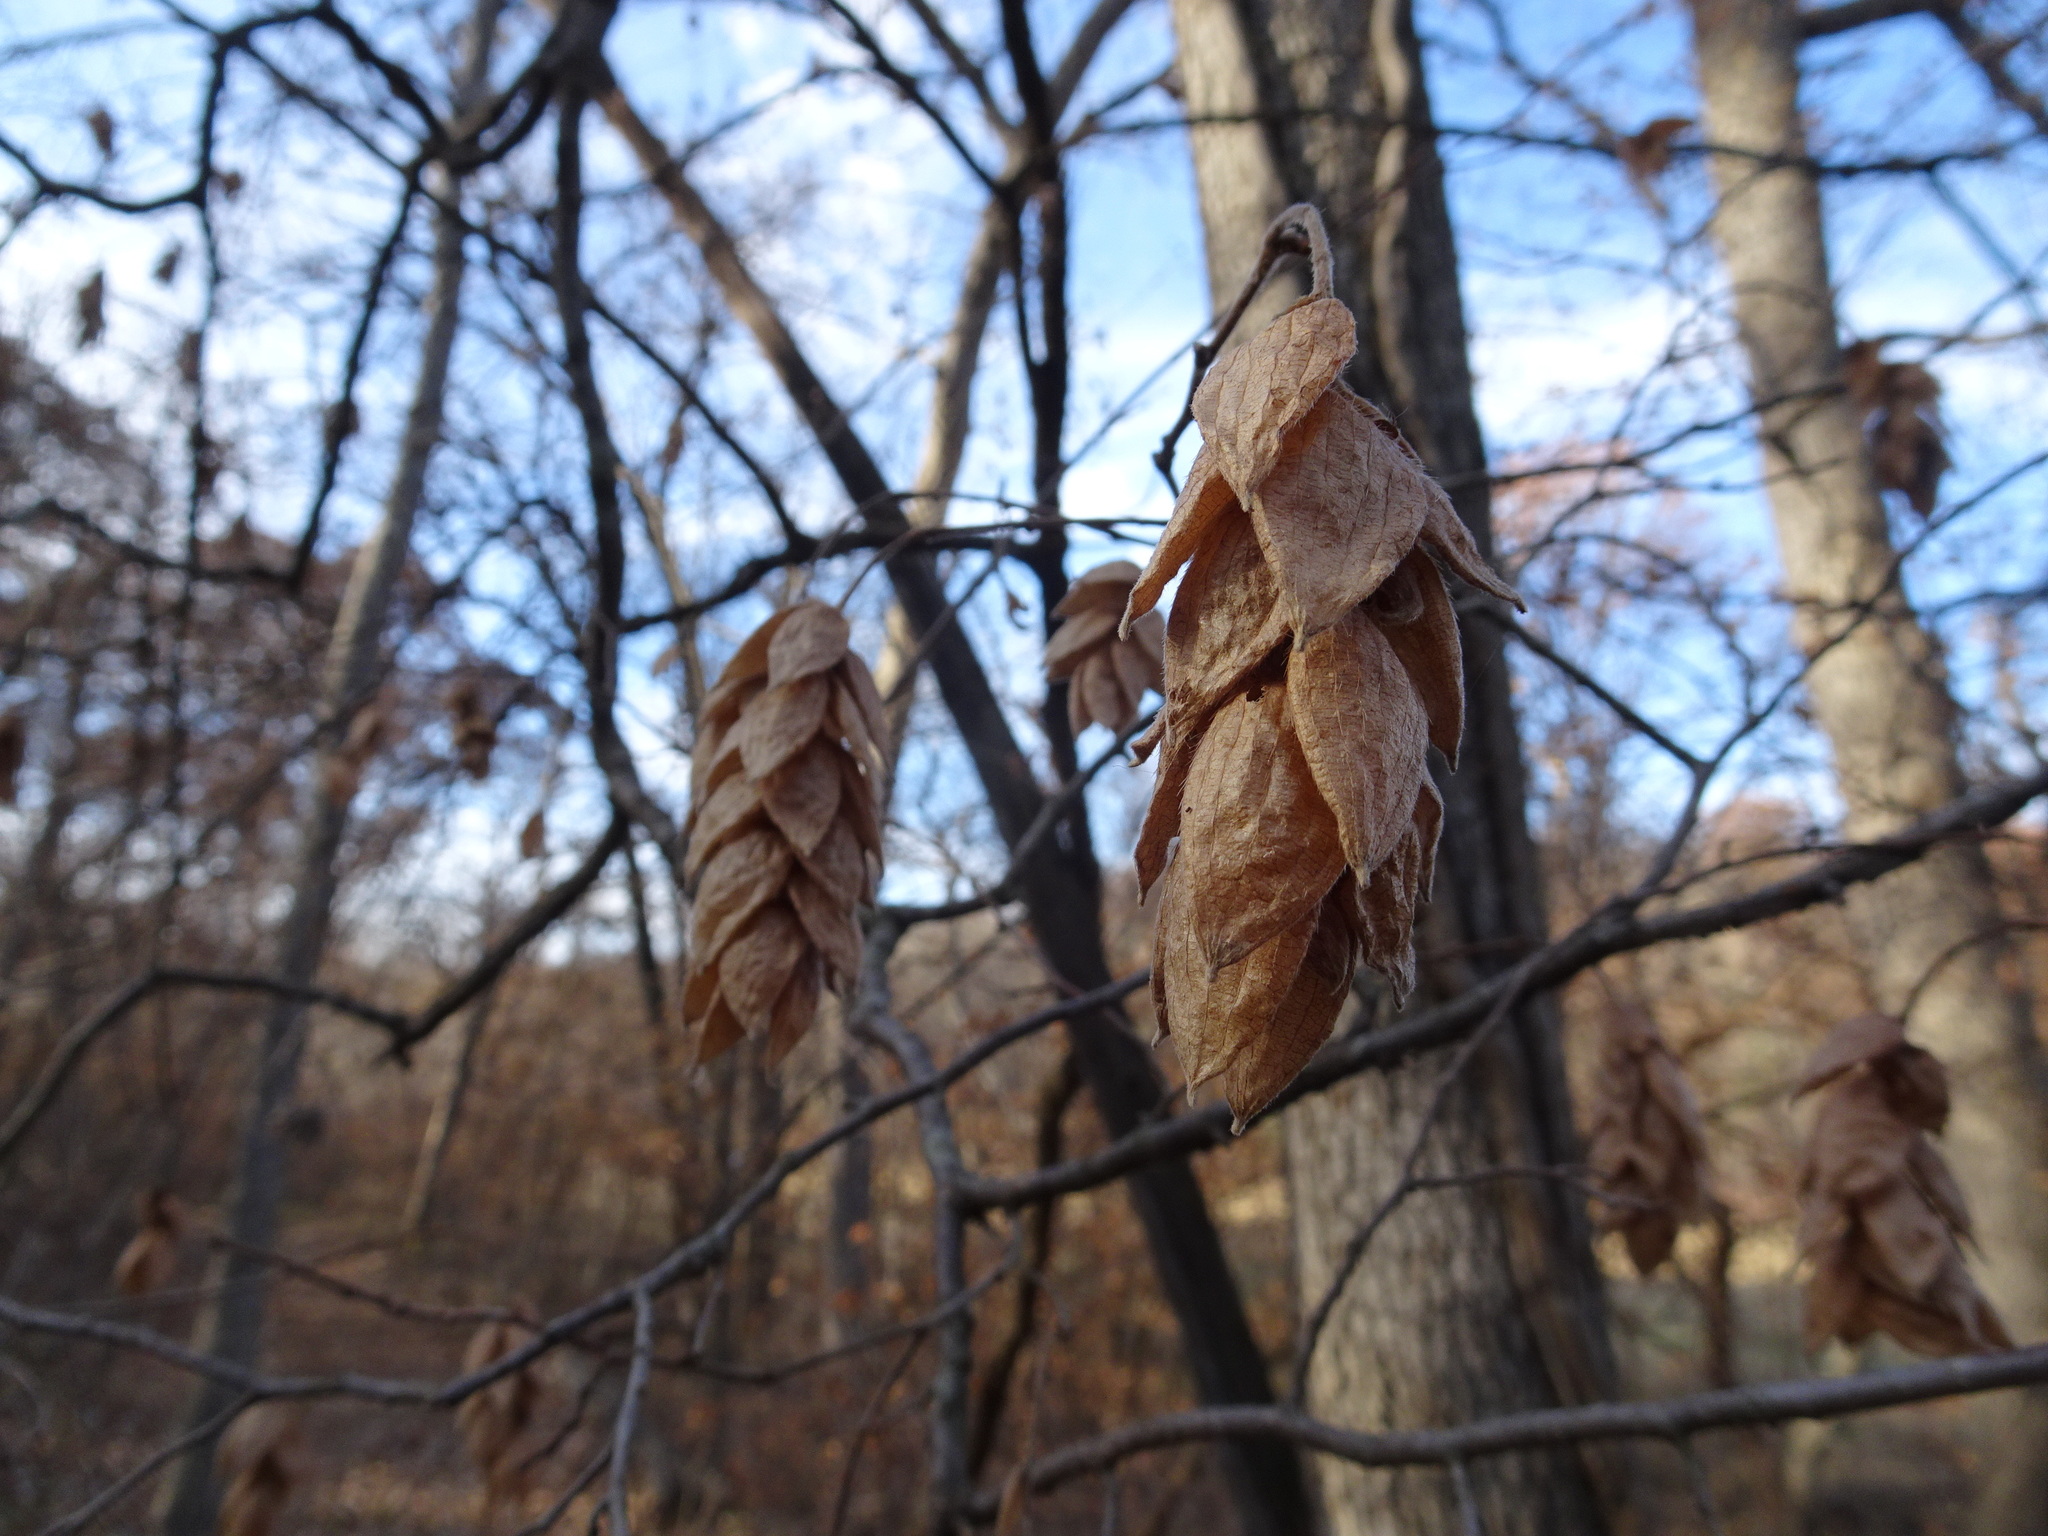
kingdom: Plantae
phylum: Tracheophyta
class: Magnoliopsida
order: Fagales
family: Betulaceae
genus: Ostrya
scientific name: Ostrya virginiana
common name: Ironwood
